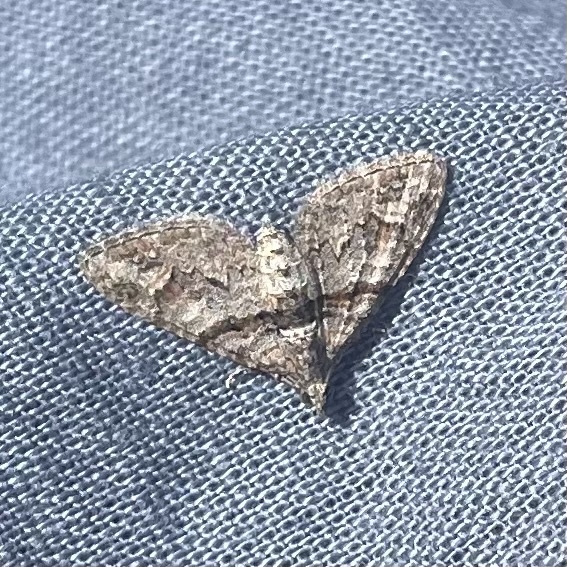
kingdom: Animalia
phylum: Arthropoda
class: Insecta
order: Lepidoptera
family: Geometridae
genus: Phrissogonus
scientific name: Phrissogonus laticostata
